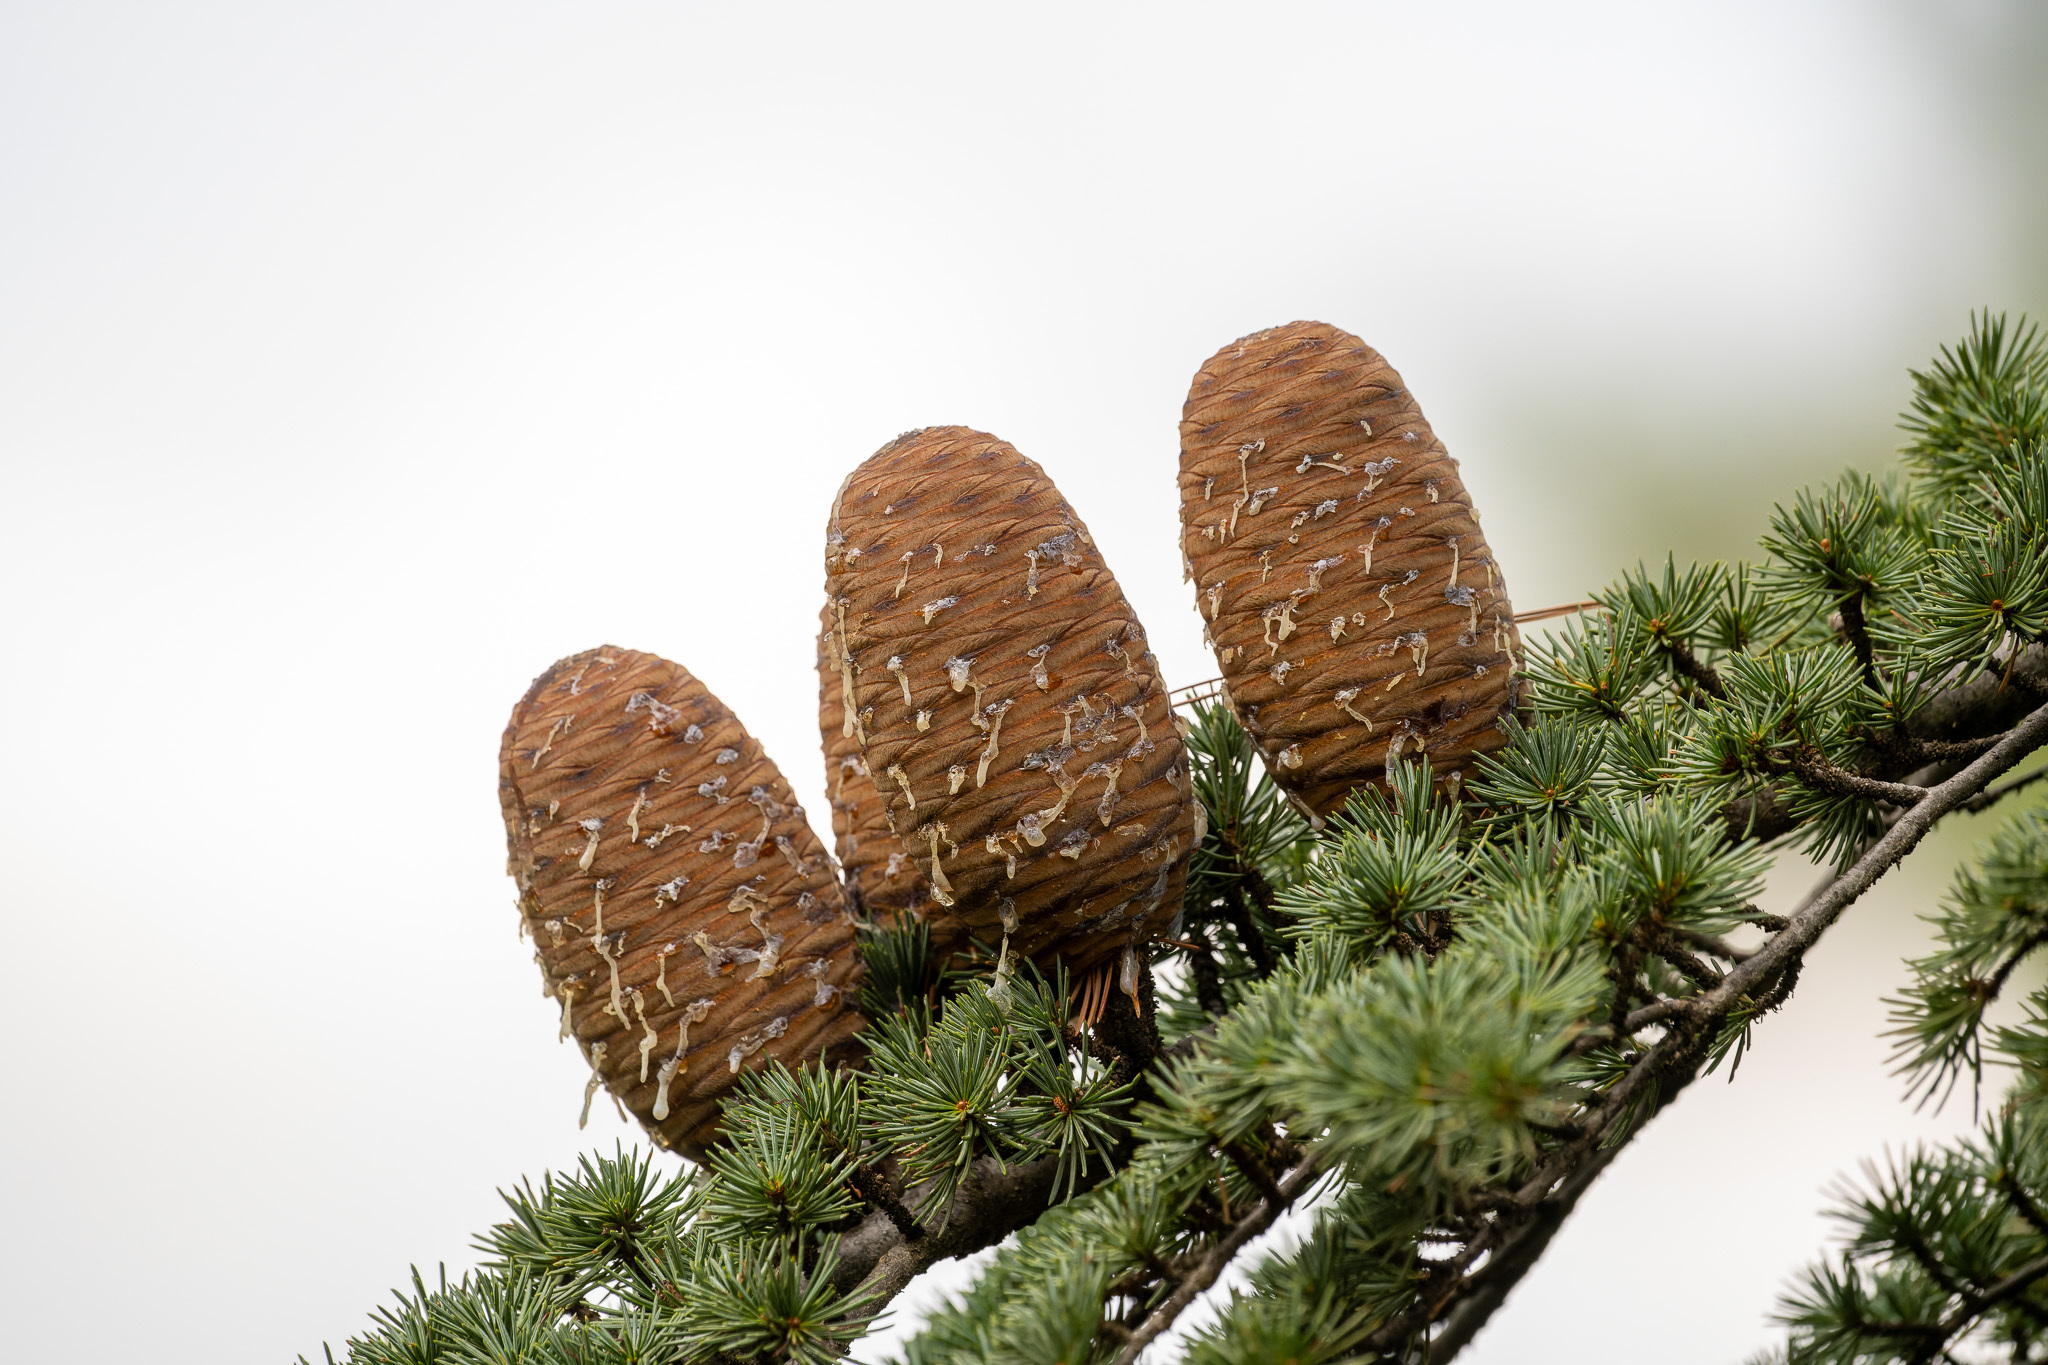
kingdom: Plantae
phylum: Tracheophyta
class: Pinopsida
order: Pinales
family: Pinaceae
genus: Cedrus
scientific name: Cedrus libani
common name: Cedar-of-lebanon
